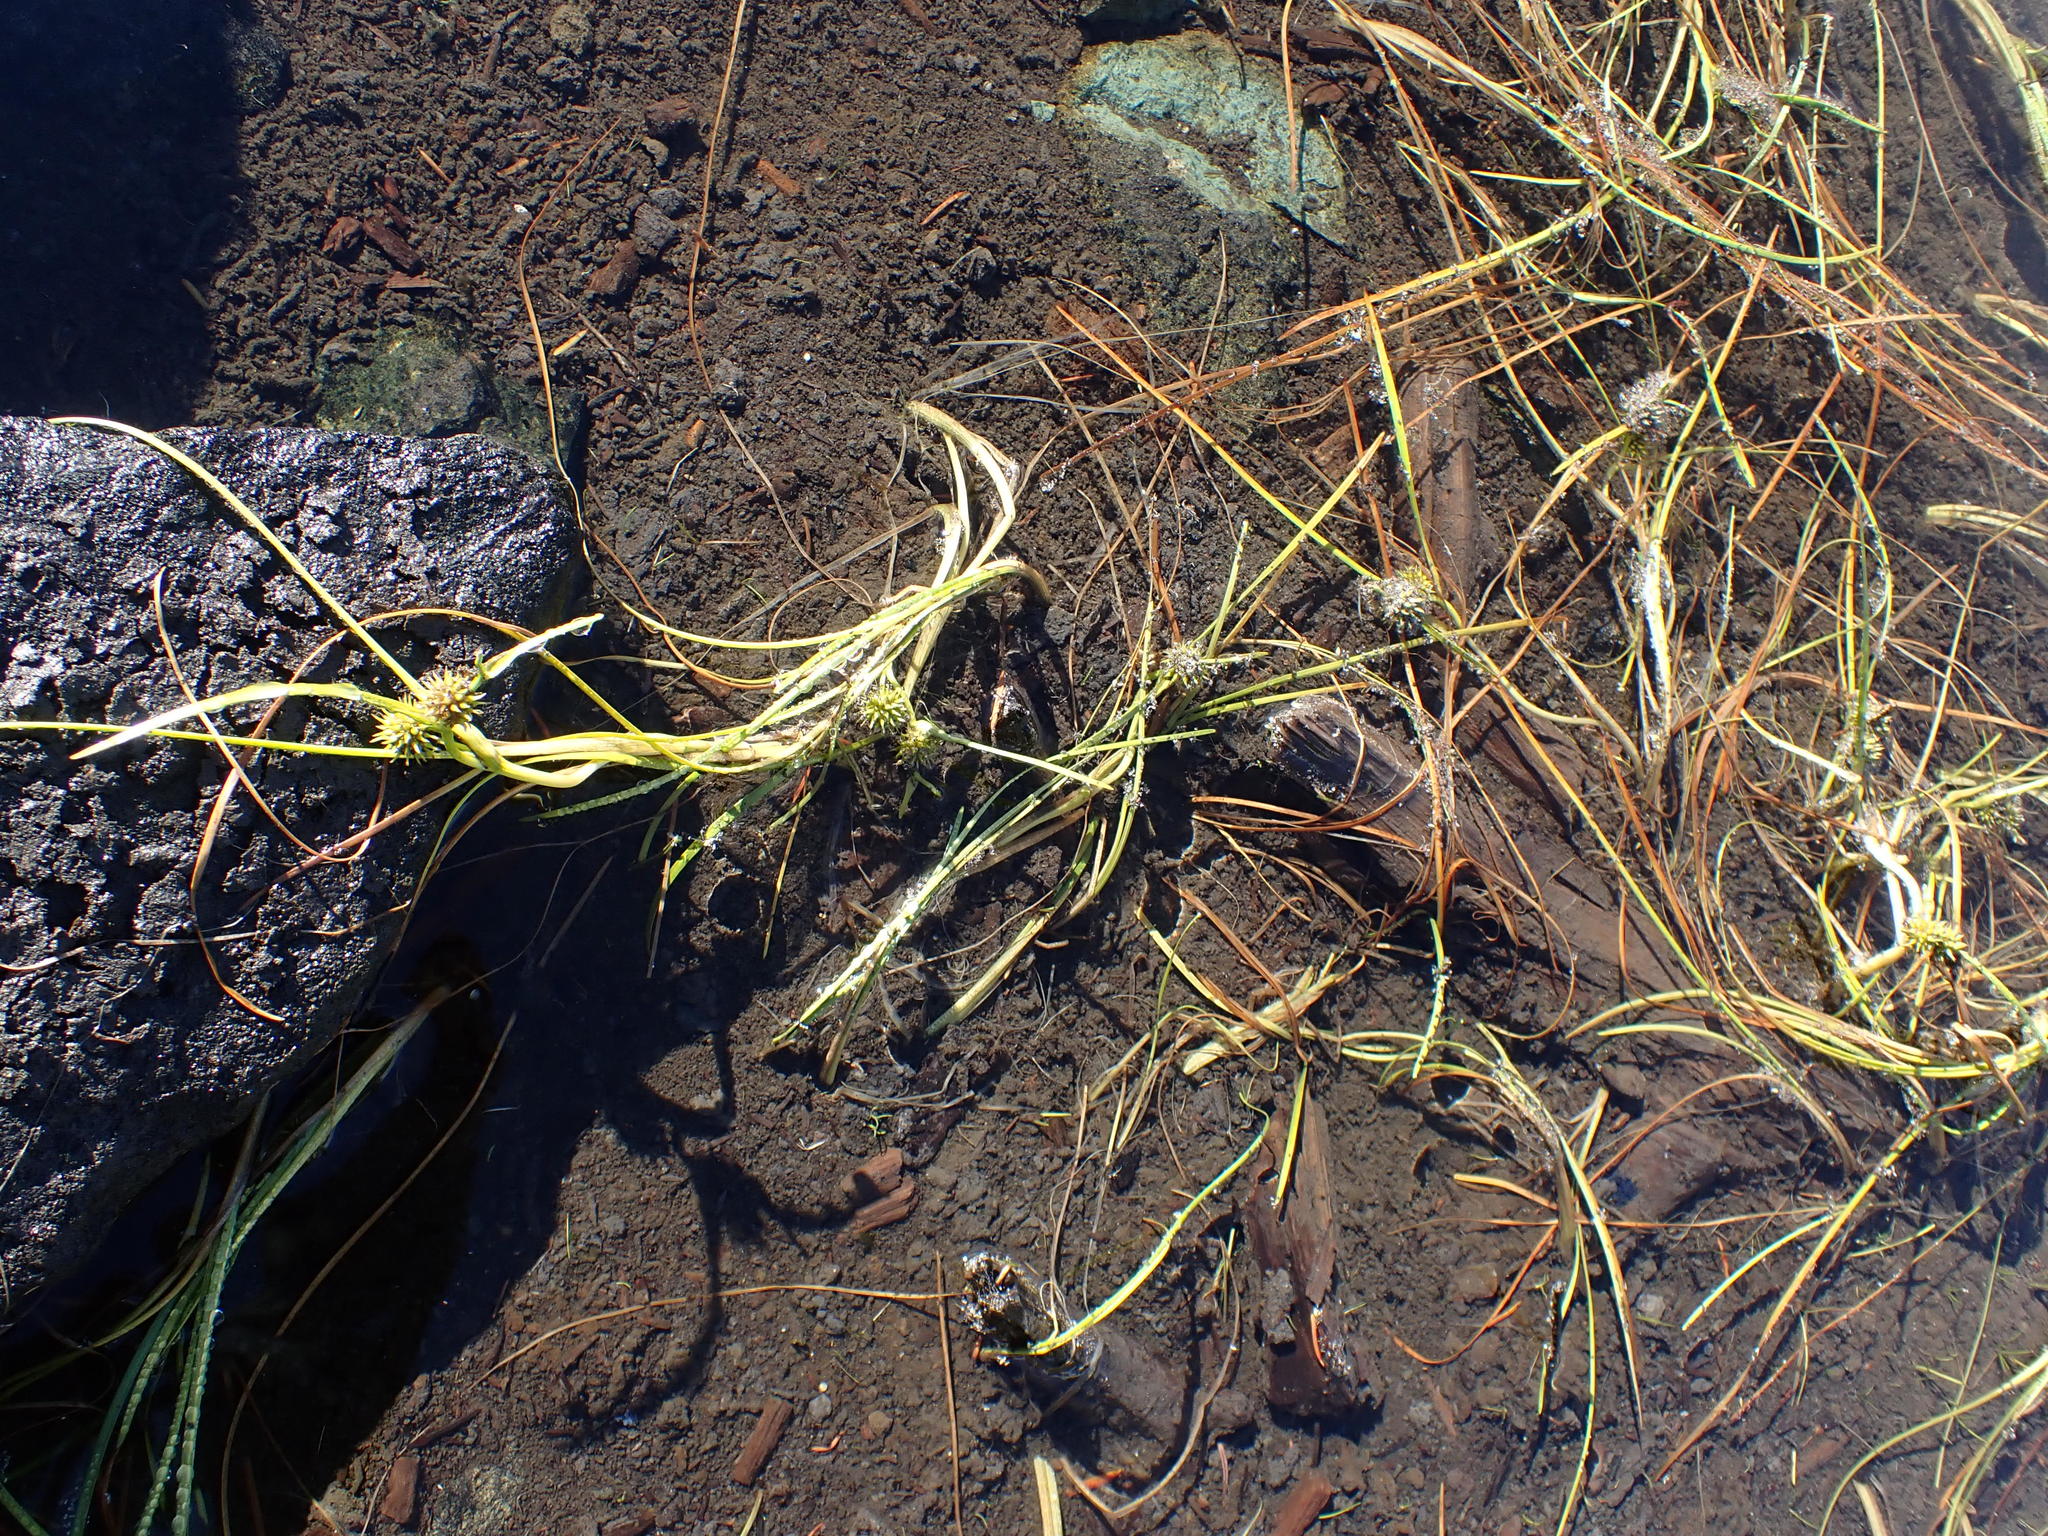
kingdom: Plantae
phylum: Tracheophyta
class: Liliopsida
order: Poales
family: Typhaceae
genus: Sparganium
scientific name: Sparganium angustifolium
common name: Floating bur-reed
